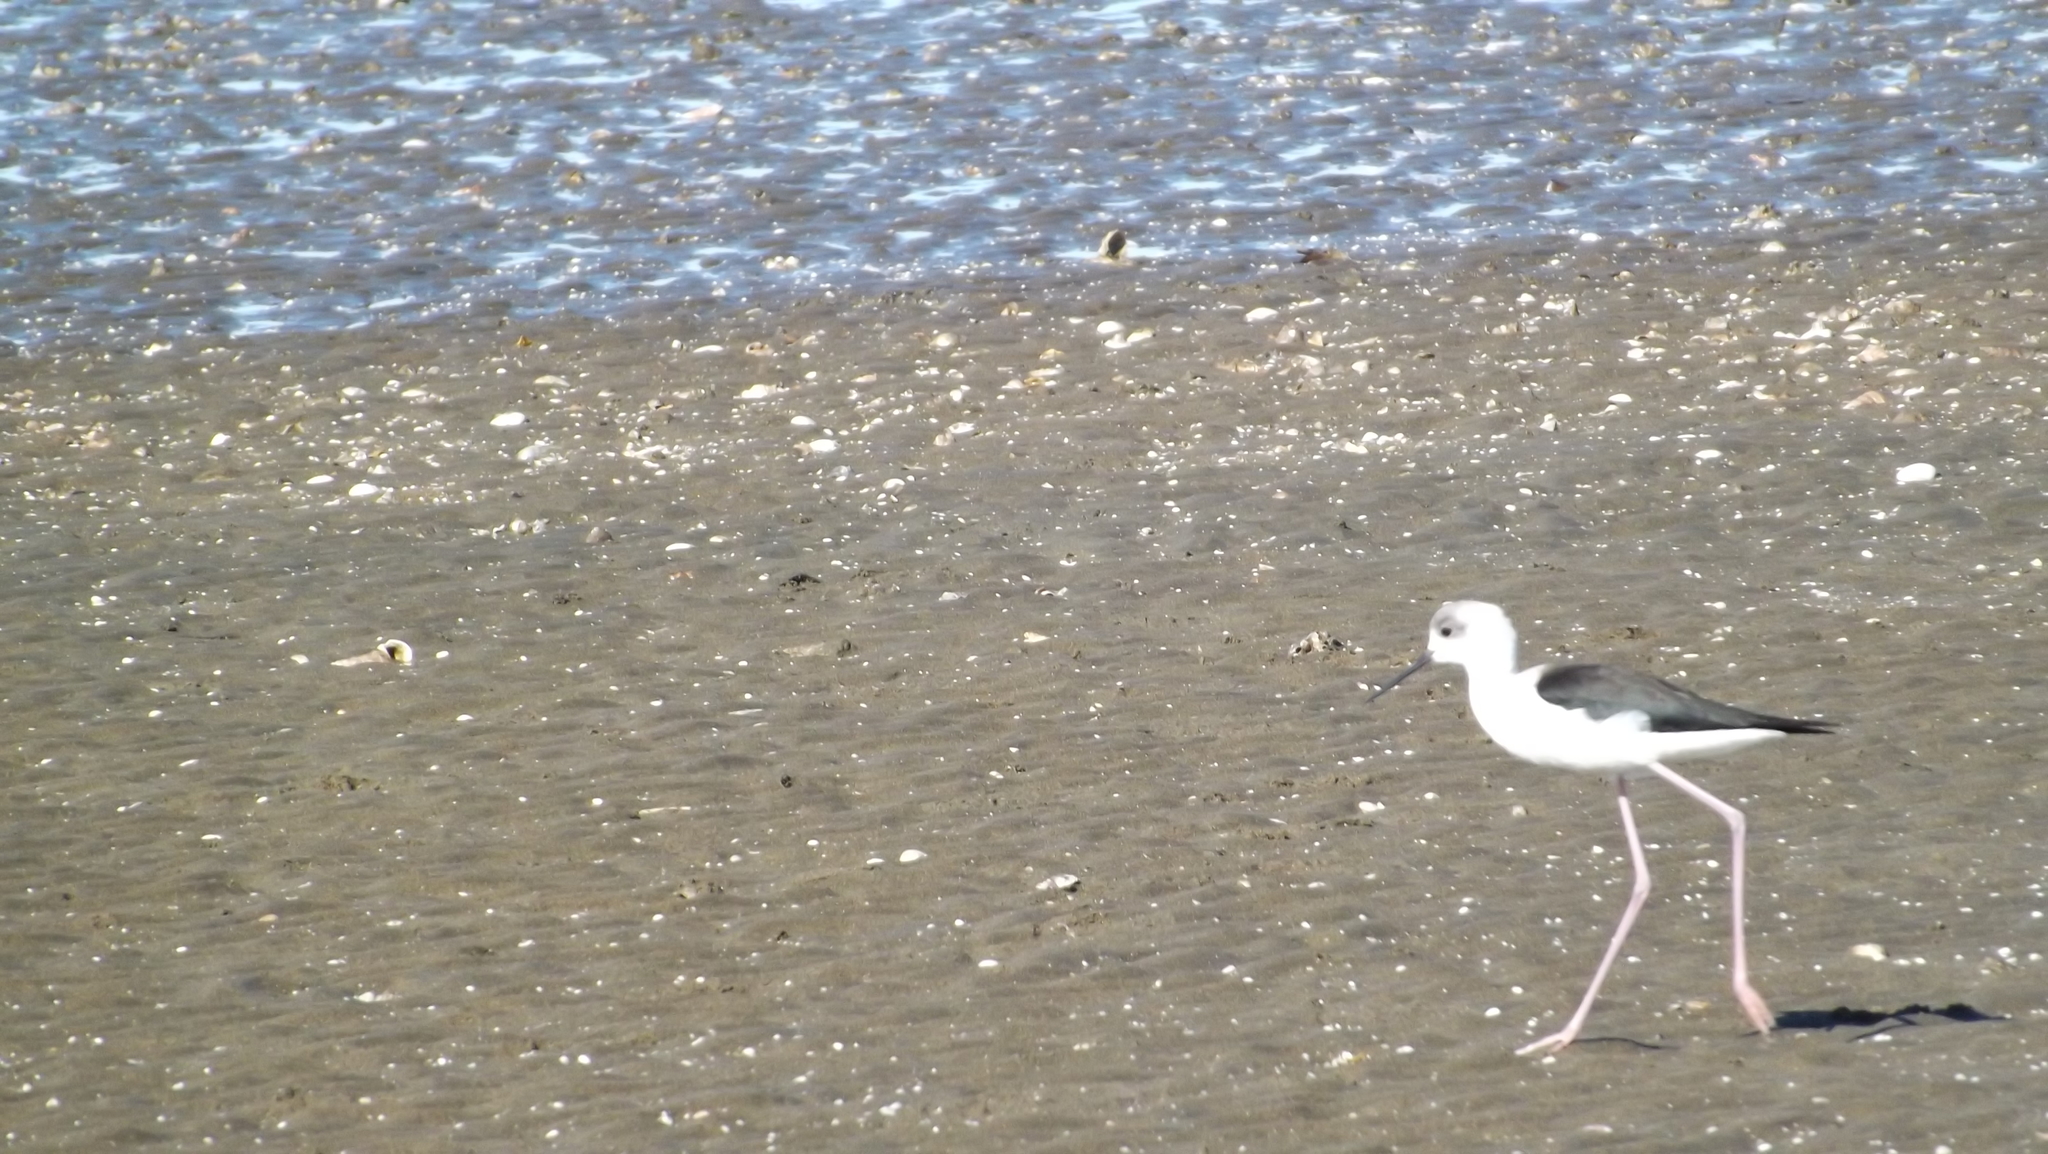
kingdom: Animalia
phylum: Chordata
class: Aves
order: Charadriiformes
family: Recurvirostridae
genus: Himantopus
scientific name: Himantopus leucocephalus
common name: White-headed stilt
